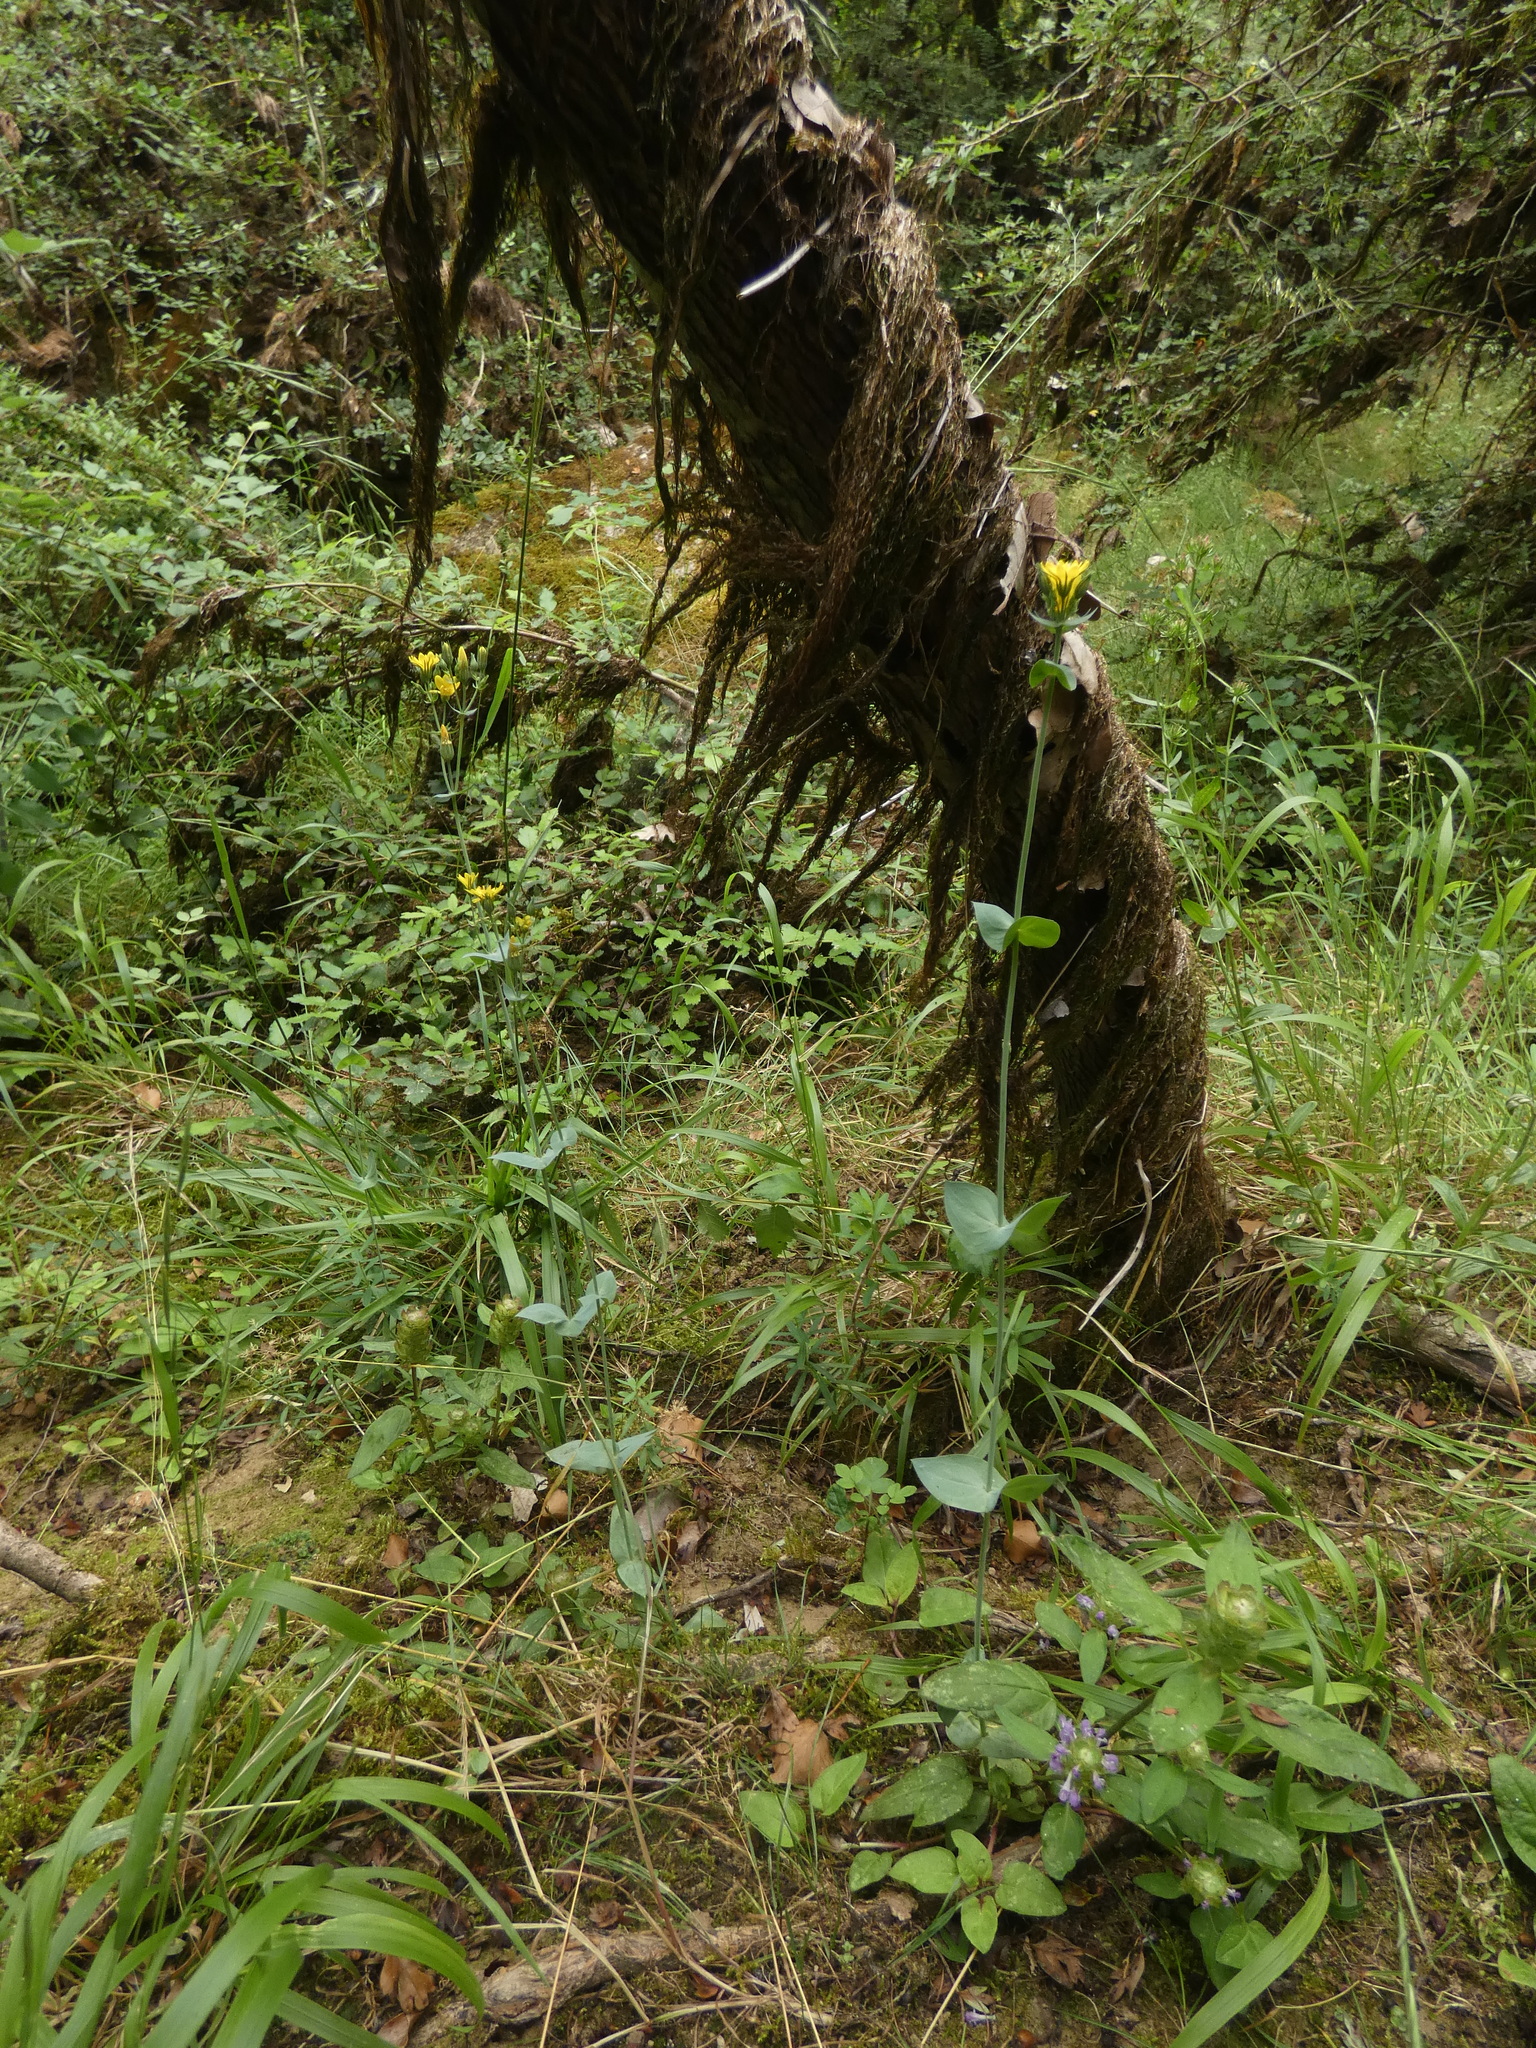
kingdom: Plantae
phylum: Tracheophyta
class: Magnoliopsida
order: Gentianales
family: Gentianaceae
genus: Blackstonia
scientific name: Blackstonia perfoliata
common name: Yellow-wort
